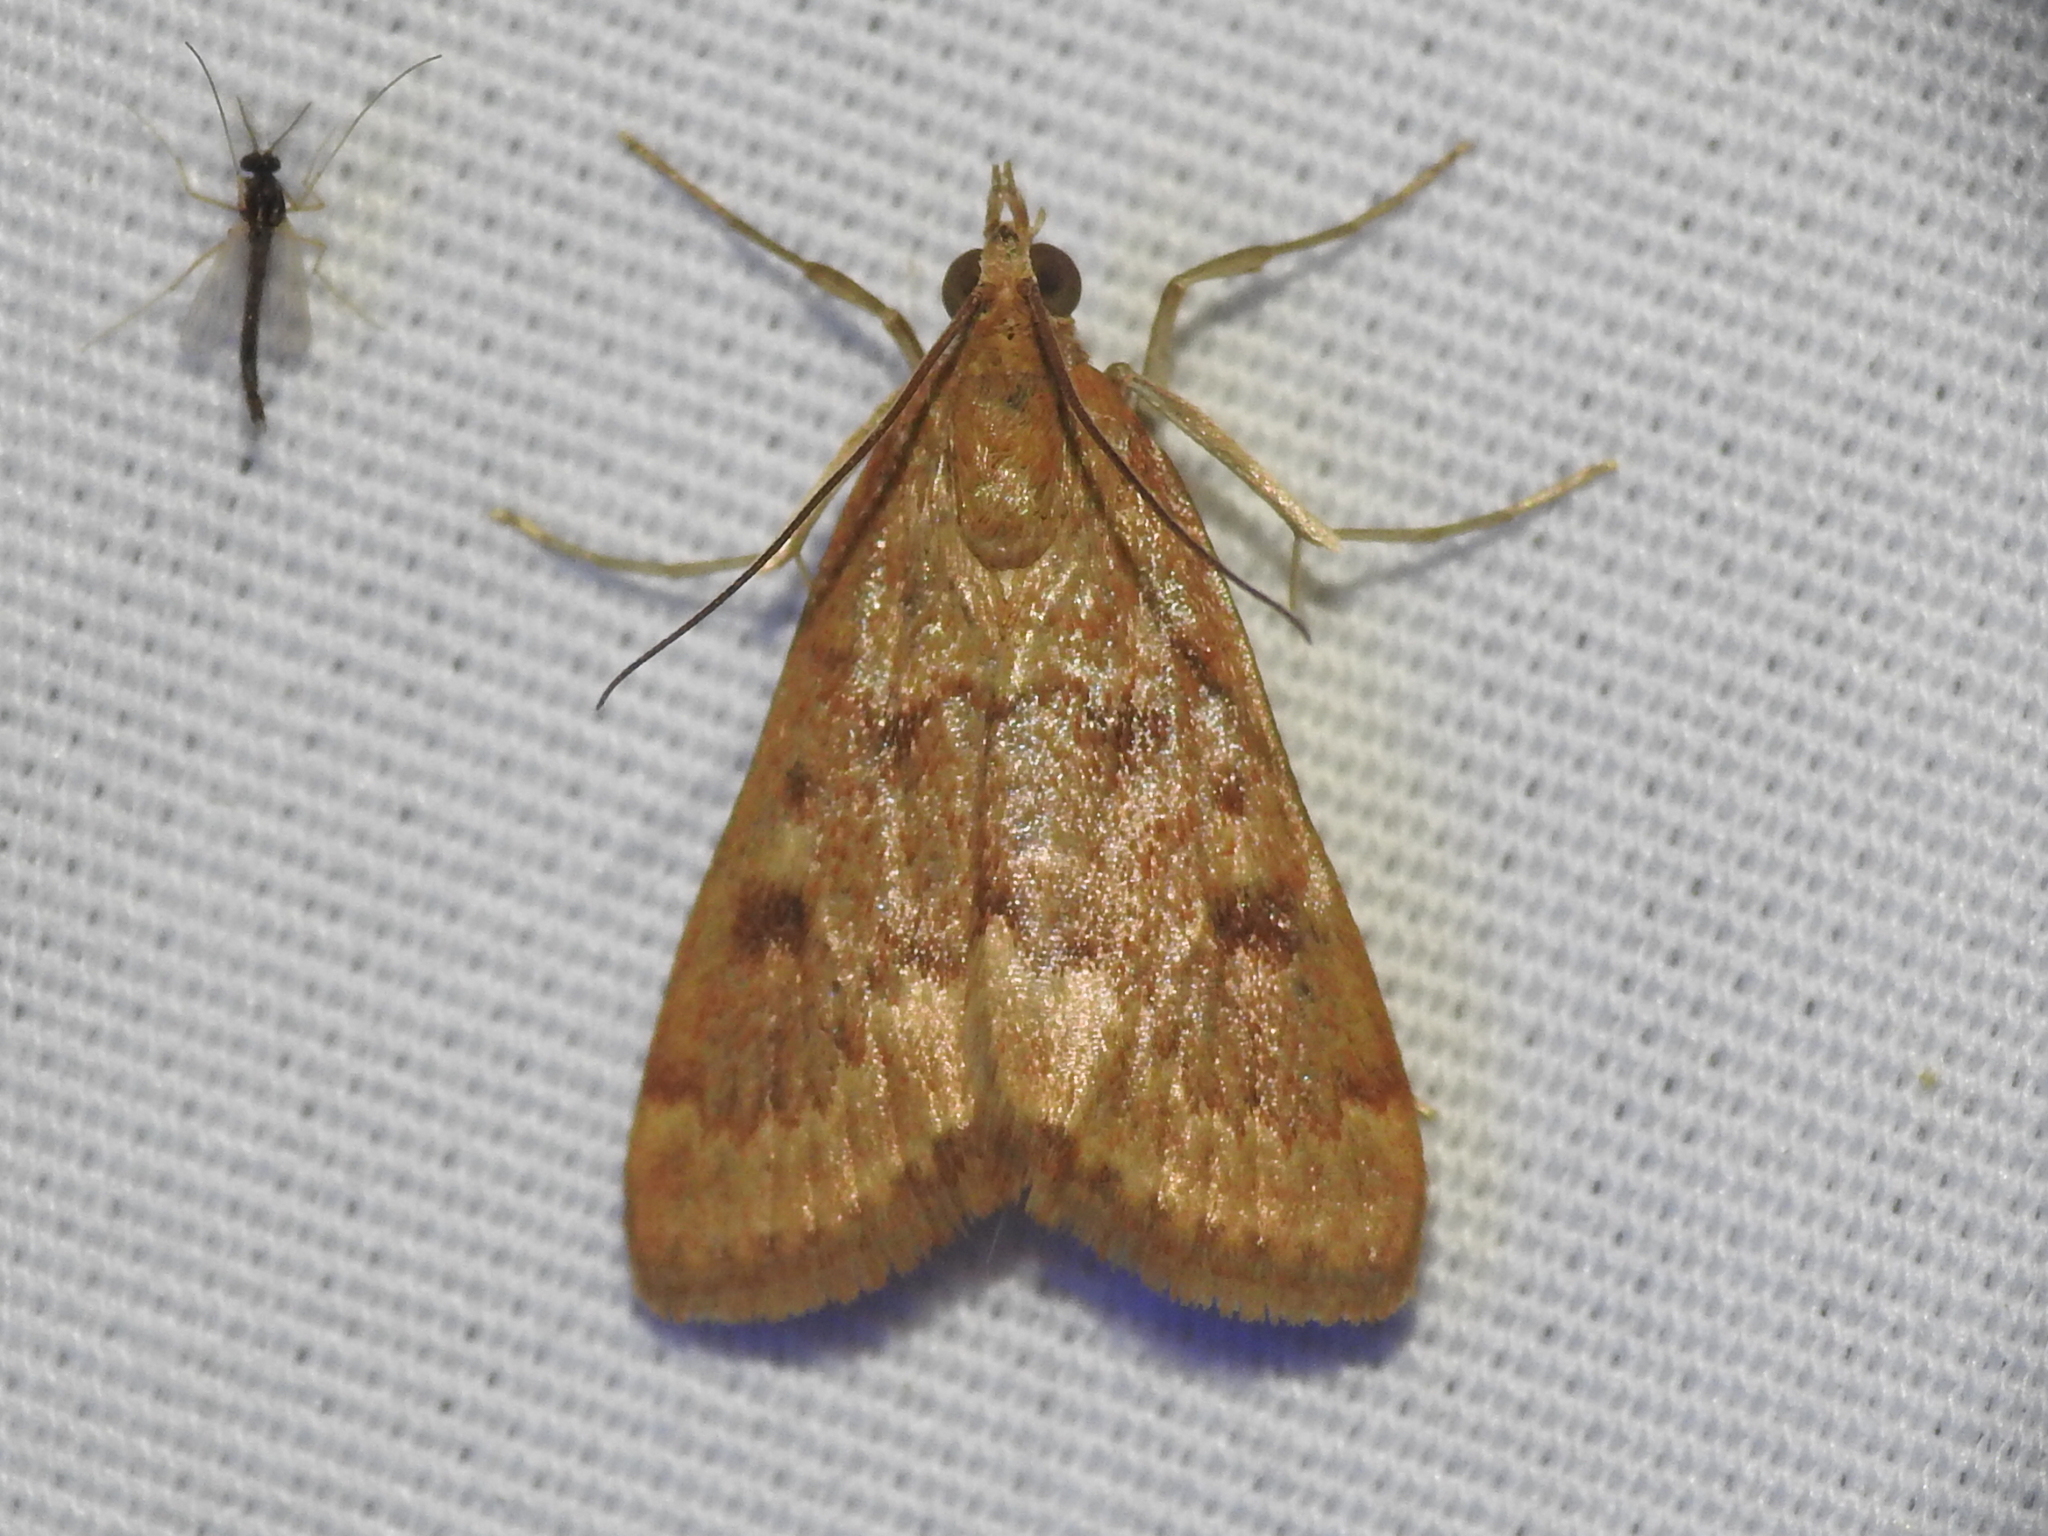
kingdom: Animalia
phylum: Arthropoda
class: Insecta
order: Lepidoptera
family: Crambidae
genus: Achyra
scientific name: Achyra rantalis
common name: Garden webworm
